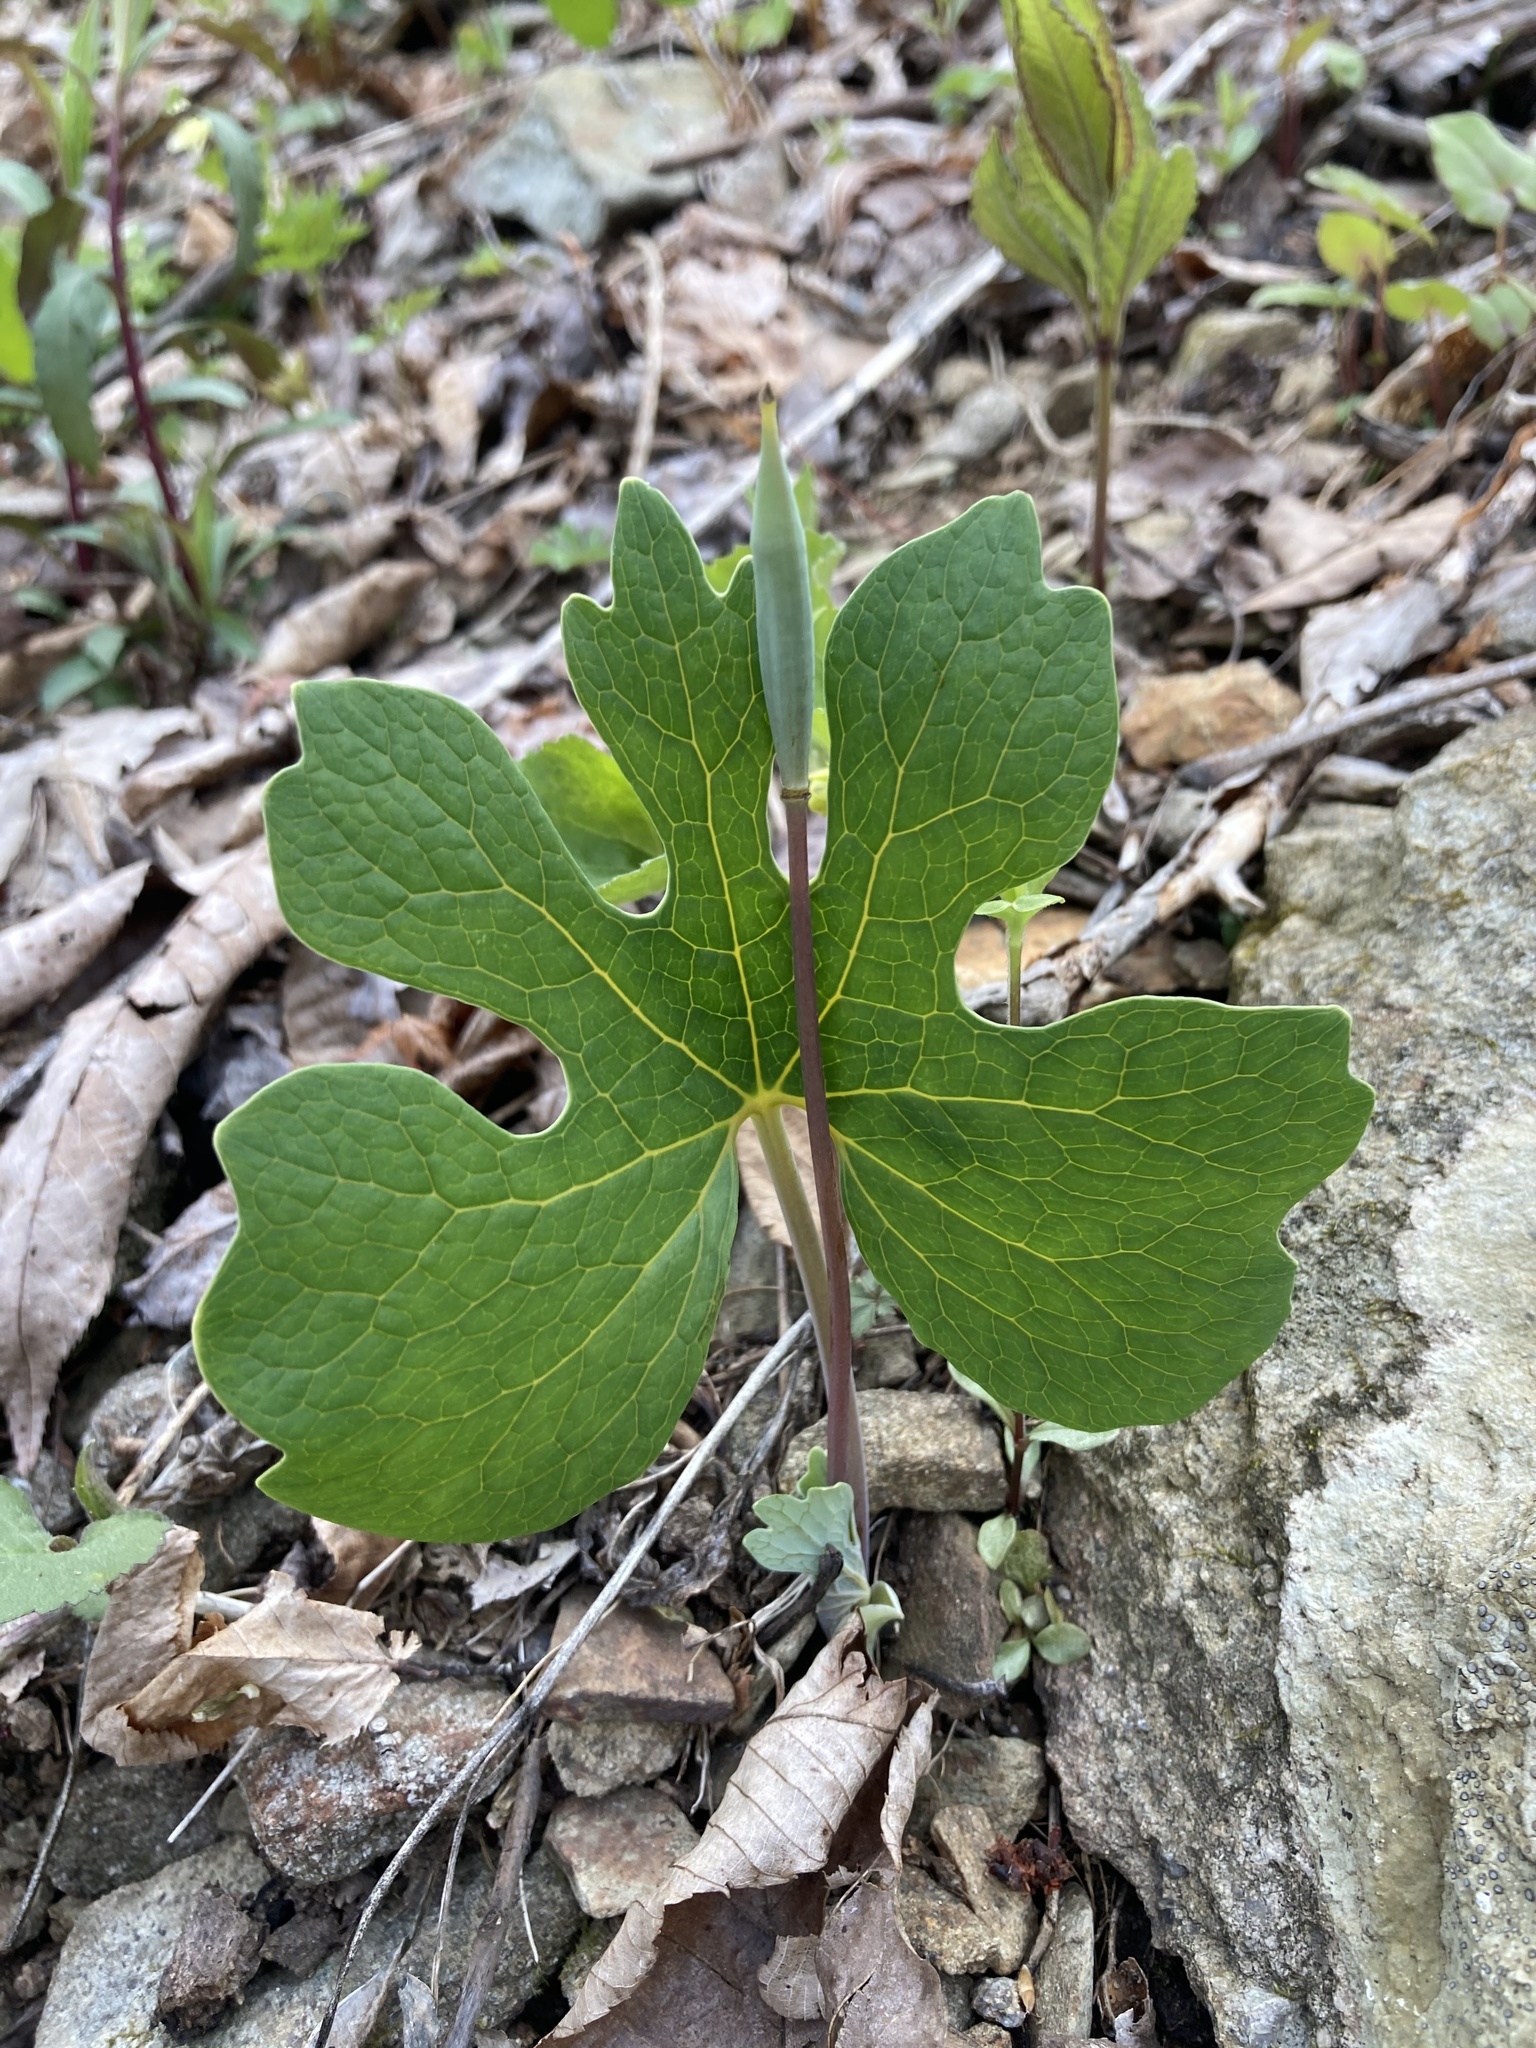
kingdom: Plantae
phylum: Tracheophyta
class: Magnoliopsida
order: Ranunculales
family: Papaveraceae
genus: Sanguinaria
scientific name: Sanguinaria canadensis
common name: Bloodroot
